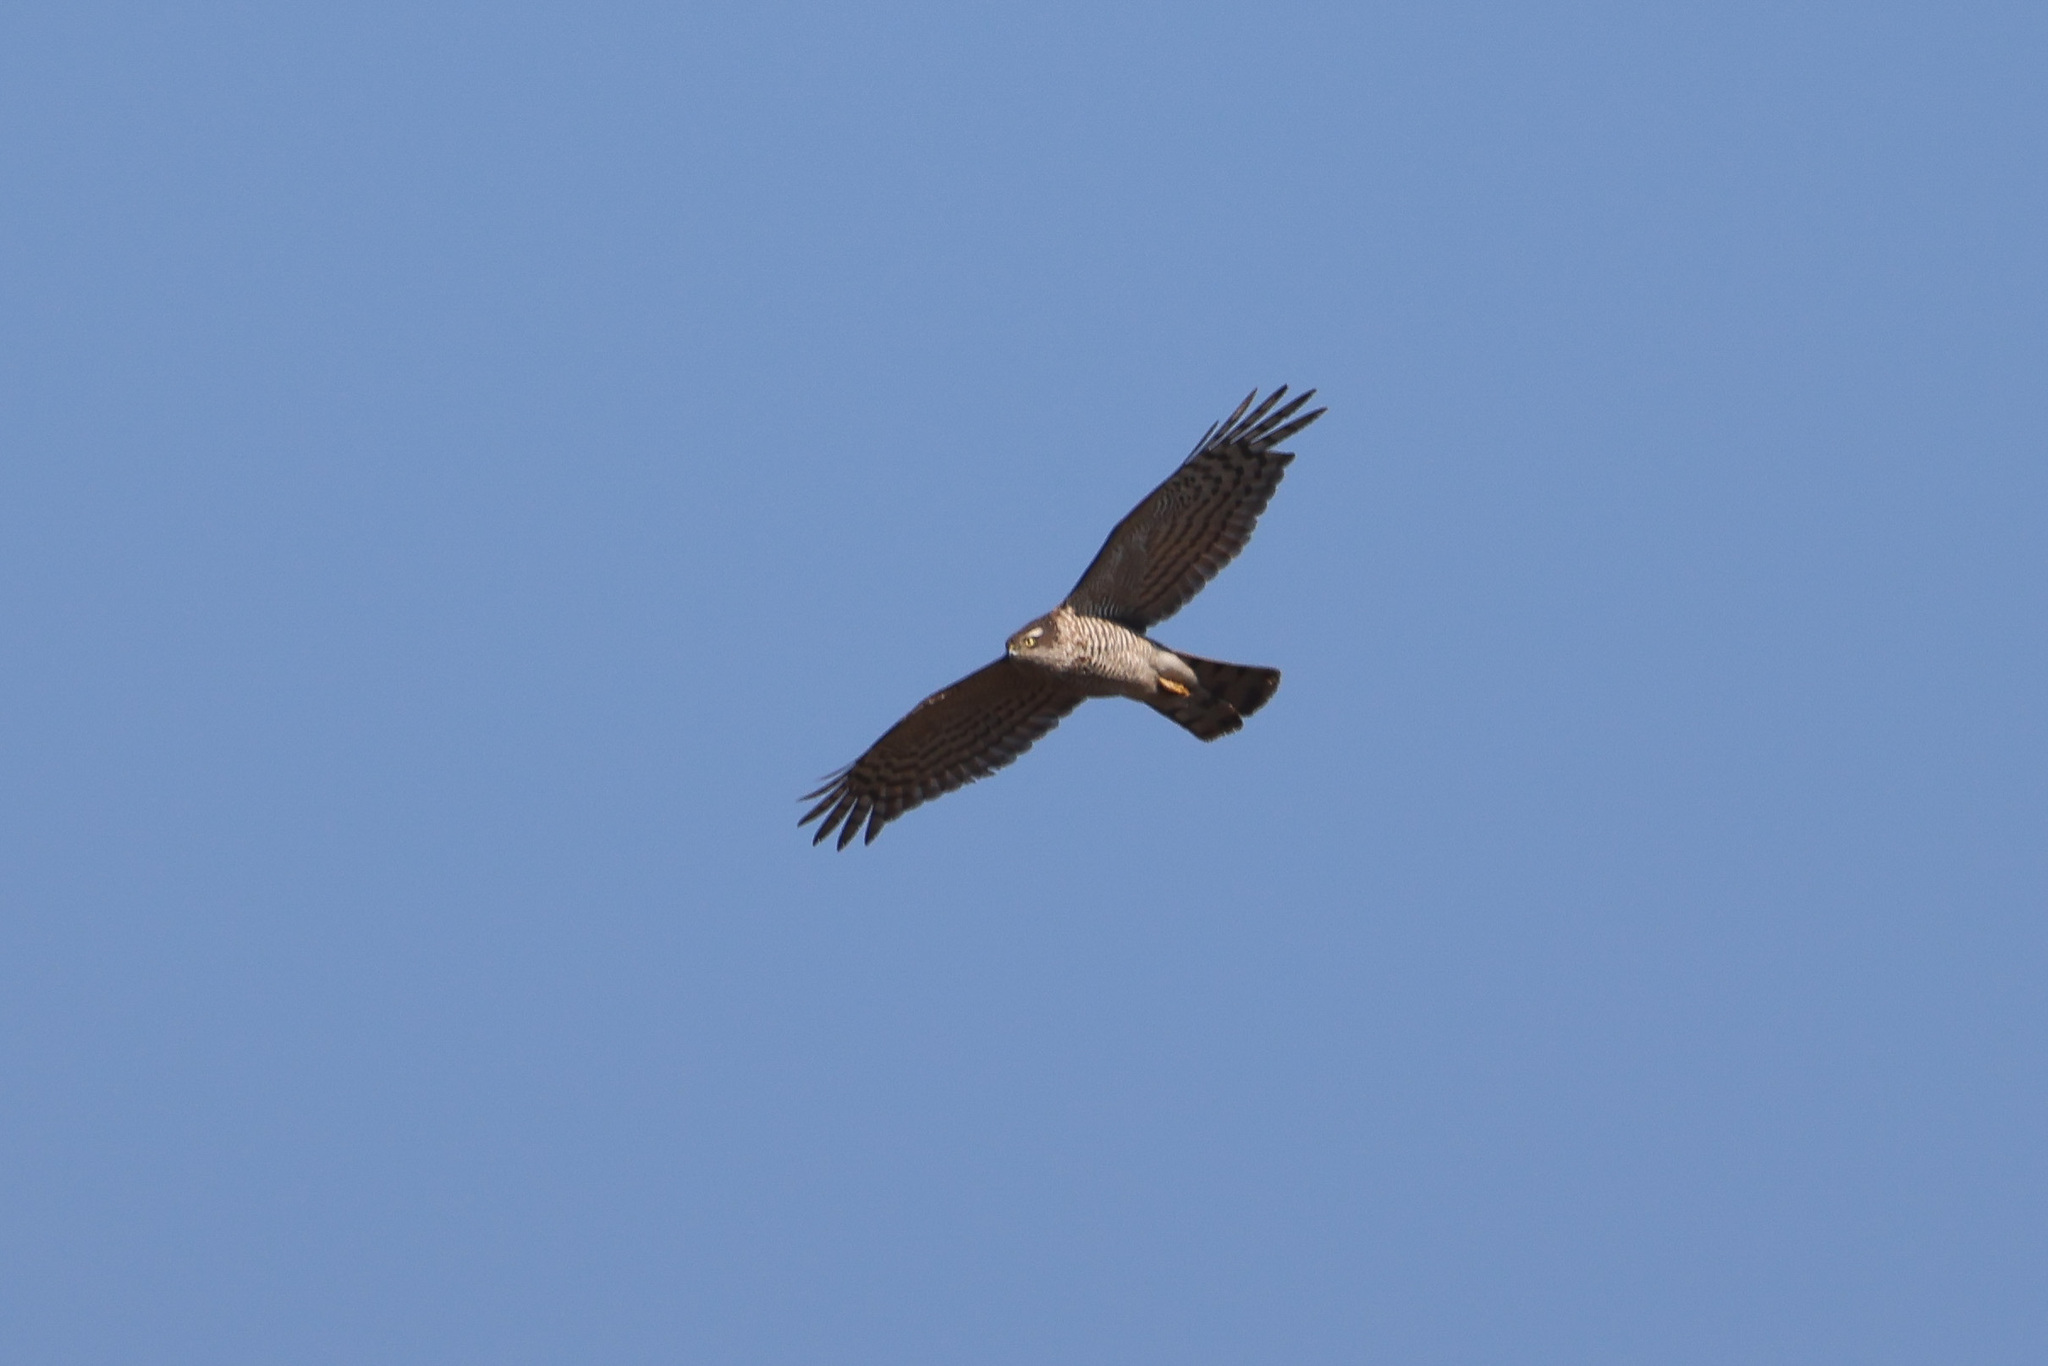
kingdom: Animalia
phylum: Chordata
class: Aves
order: Accipitriformes
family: Accipitridae
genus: Accipiter
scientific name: Accipiter nisus
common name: Eurasian sparrowhawk
